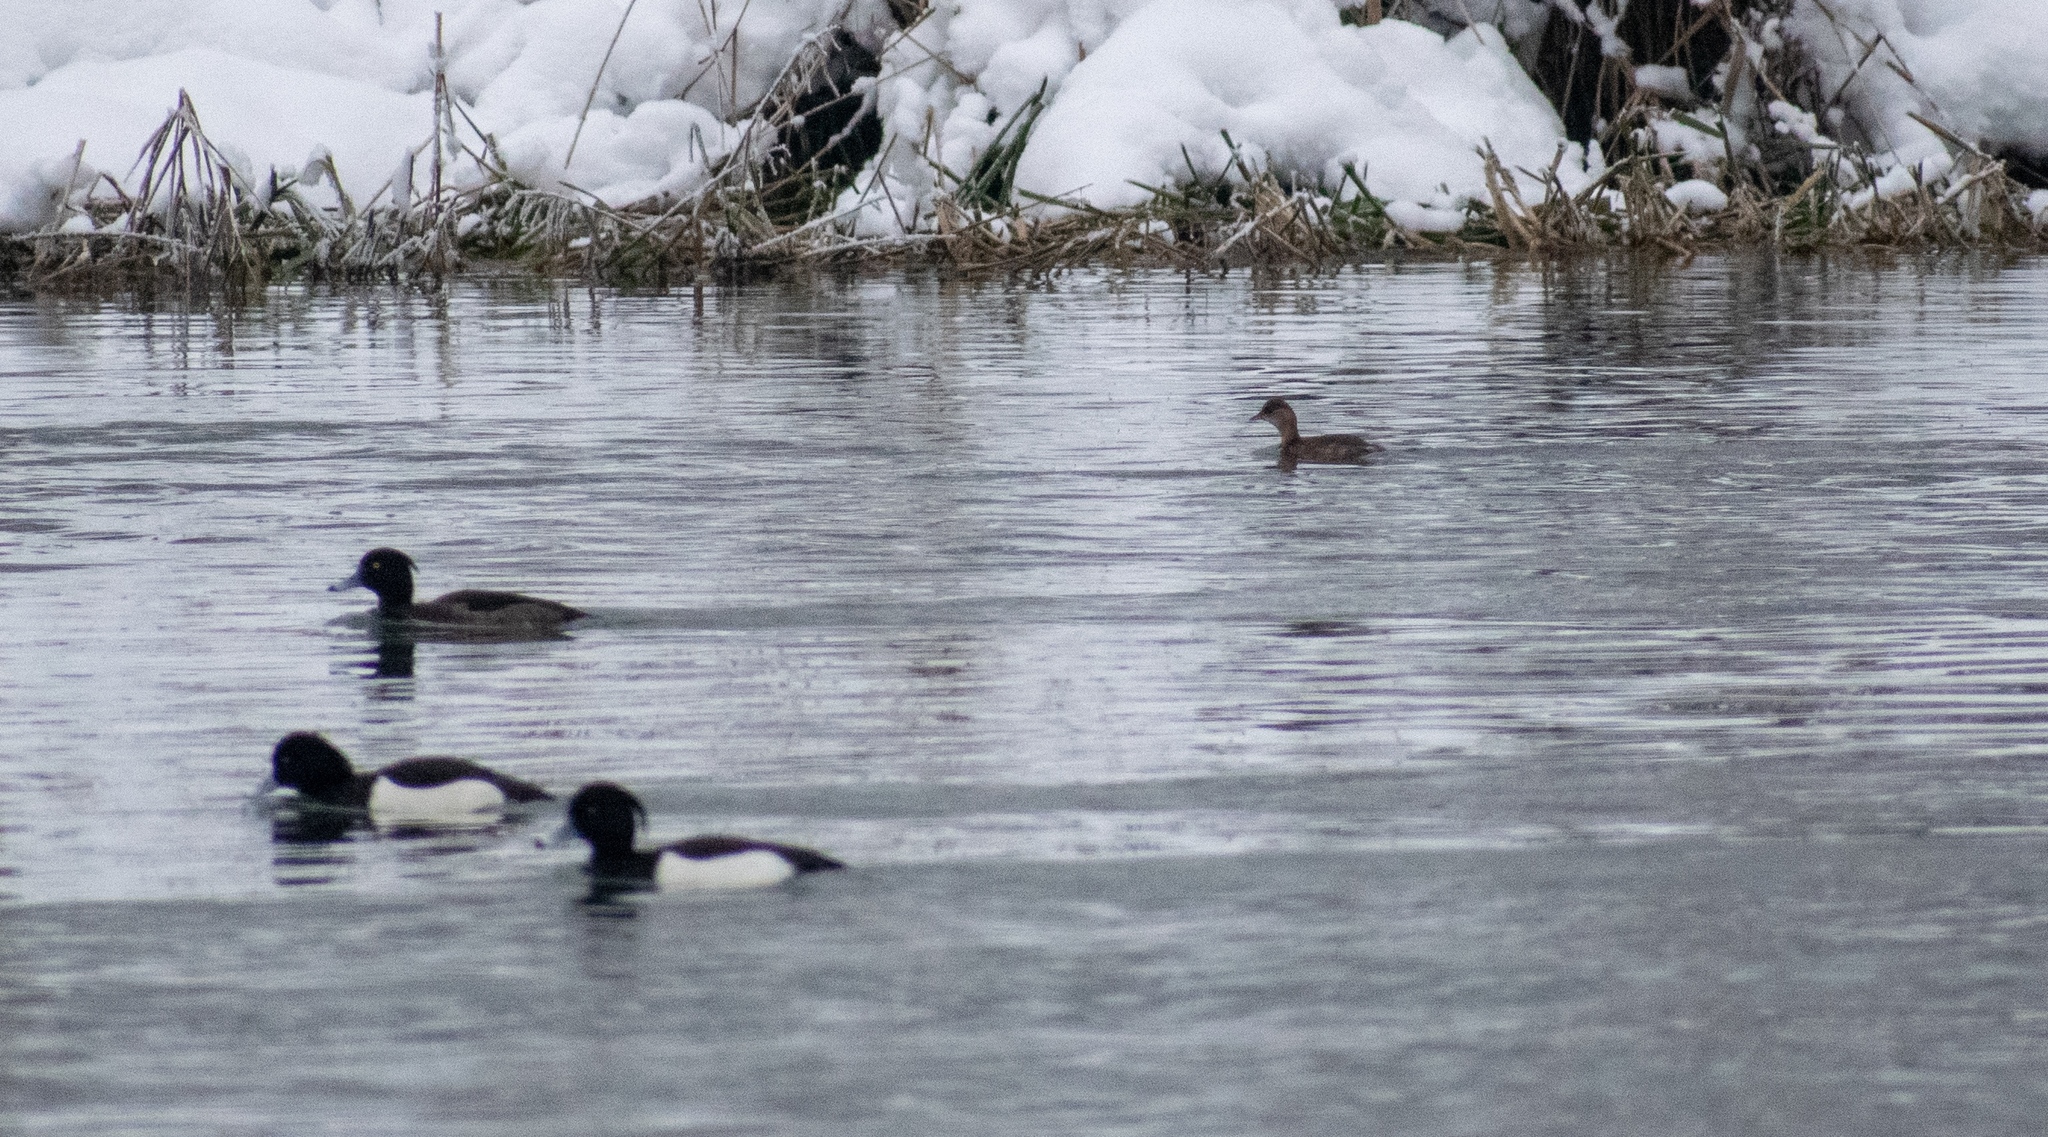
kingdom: Animalia
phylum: Chordata
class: Aves
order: Anseriformes
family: Anatidae
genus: Aythya
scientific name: Aythya fuligula
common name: Tufted duck
